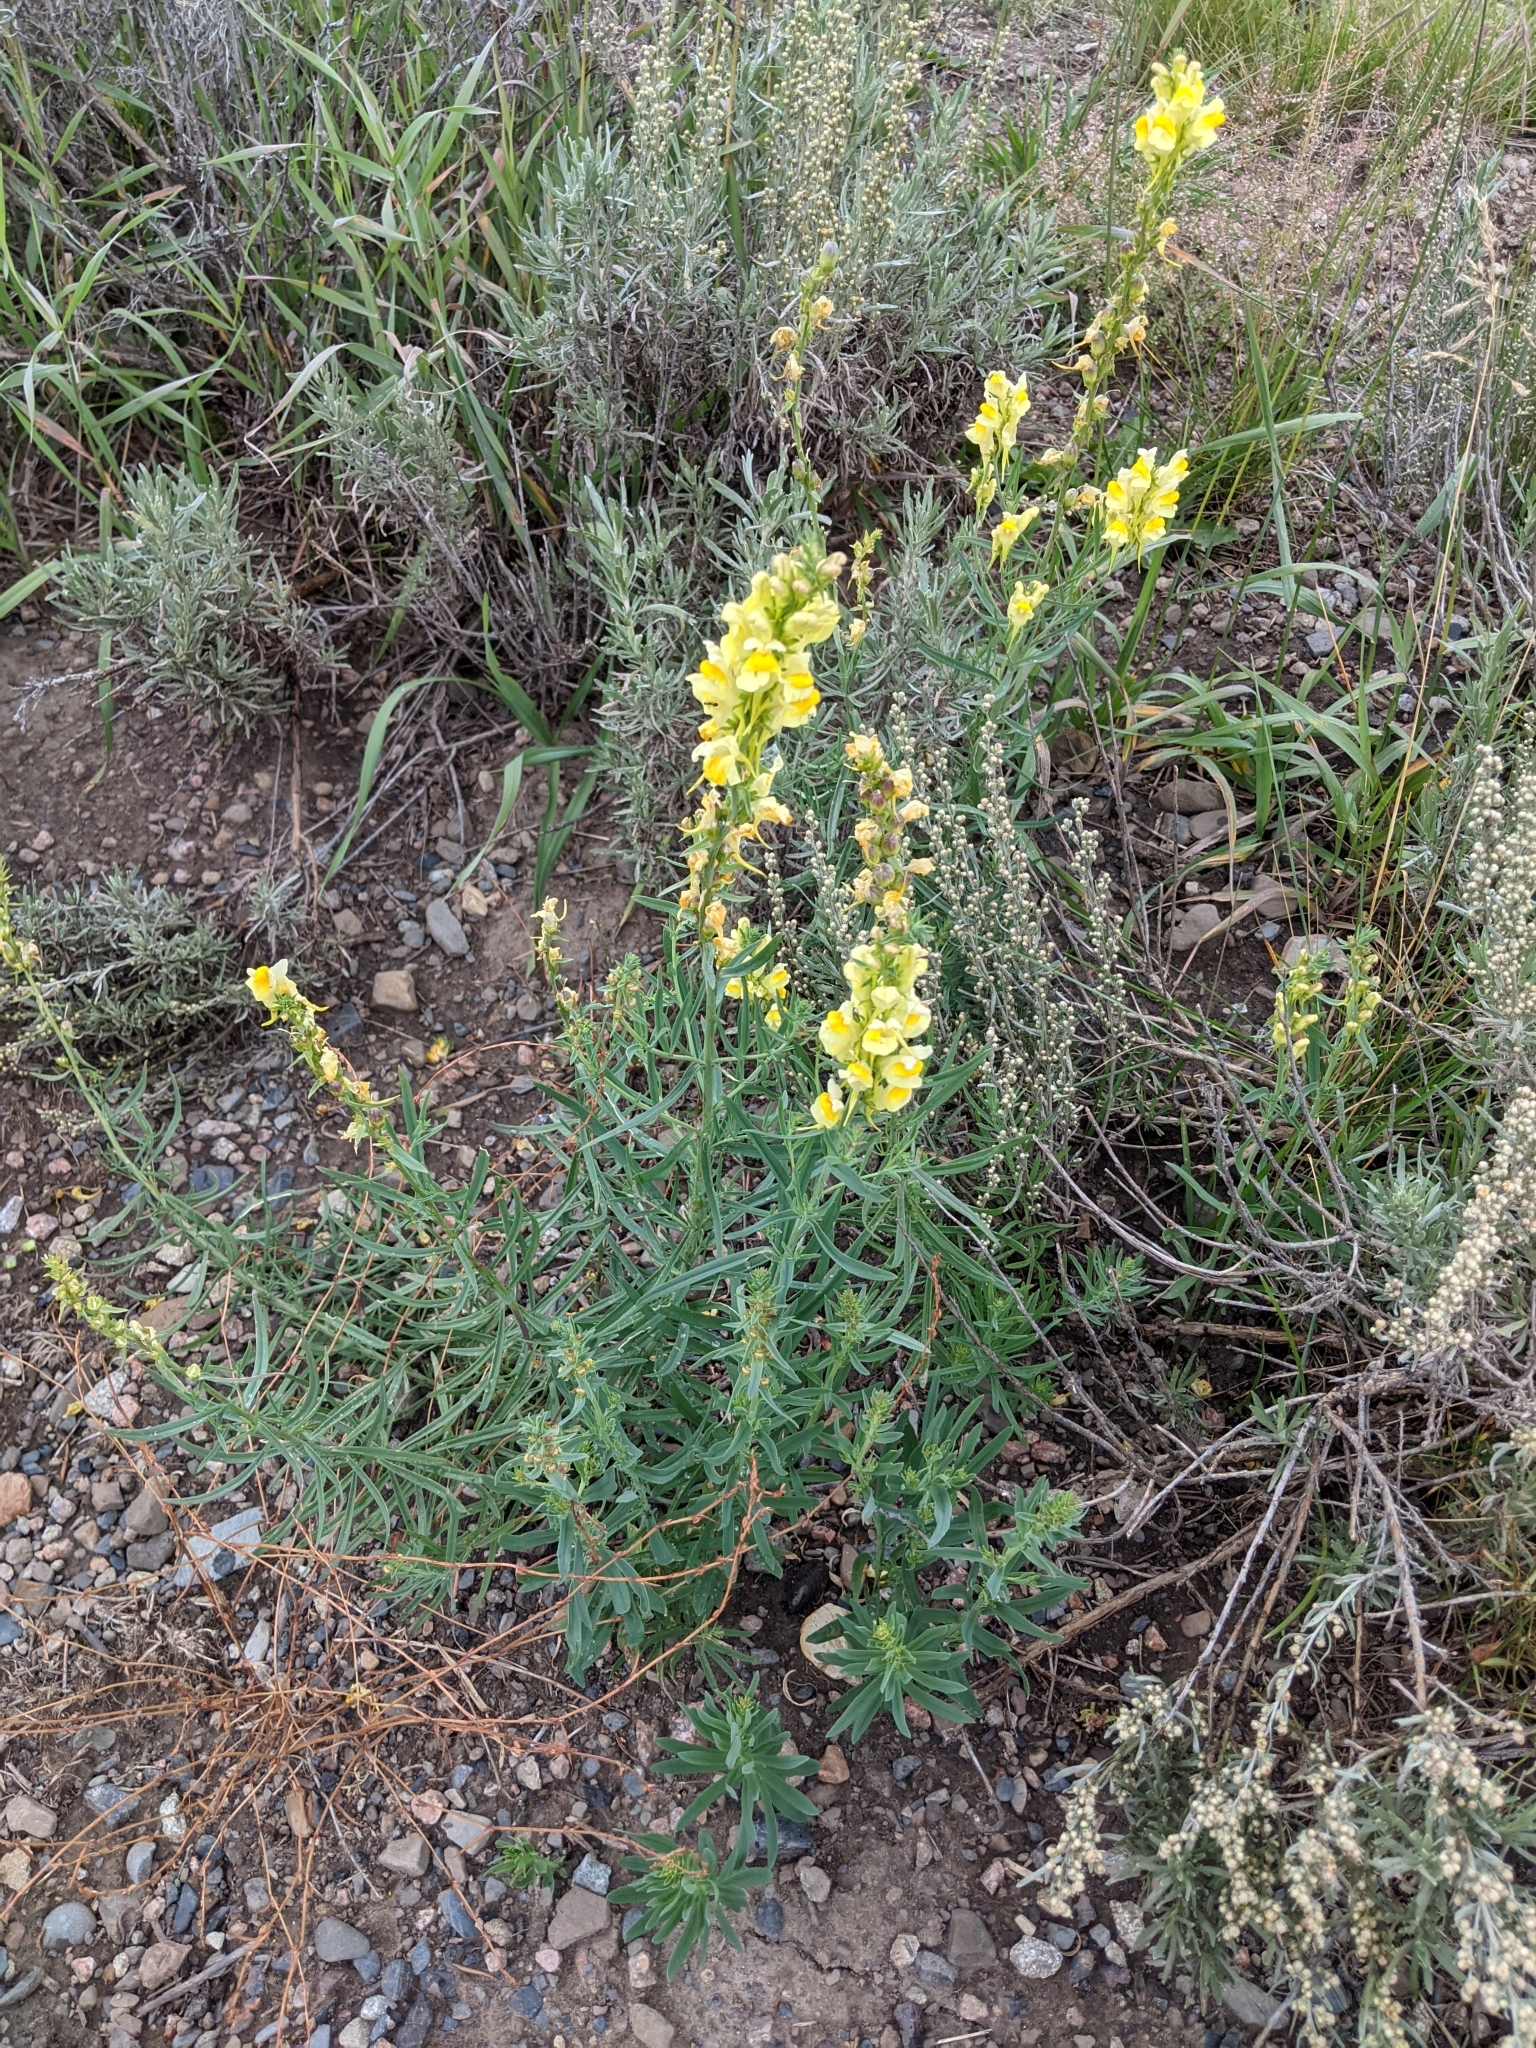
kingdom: Plantae
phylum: Tracheophyta
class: Magnoliopsida
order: Lamiales
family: Plantaginaceae
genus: Linaria
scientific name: Linaria vulgaris
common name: Butter and eggs
